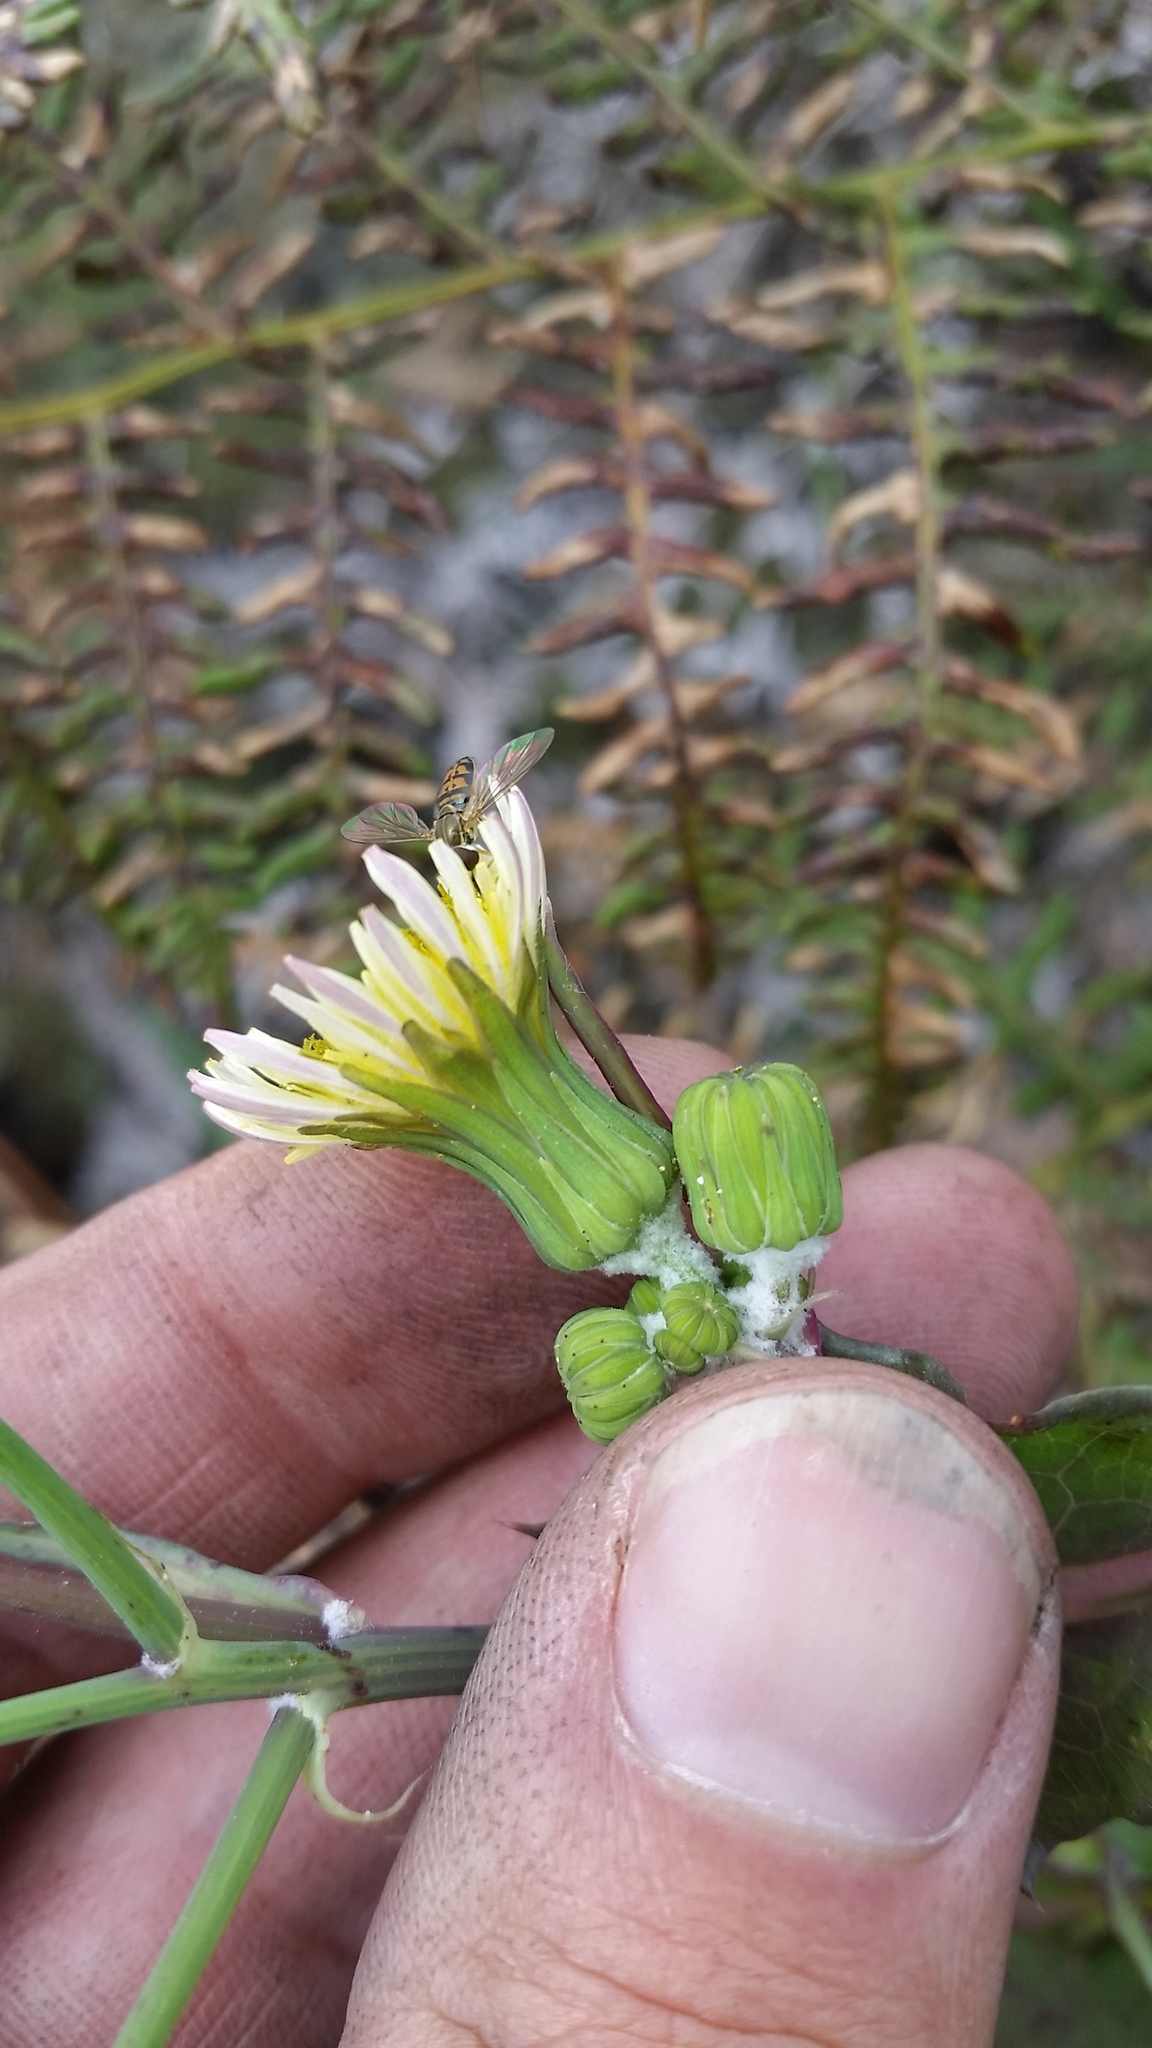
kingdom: Plantae
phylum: Tracheophyta
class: Magnoliopsida
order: Asterales
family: Asteraceae
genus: Sonchus
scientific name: Sonchus oleraceus
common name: Common sowthistle
